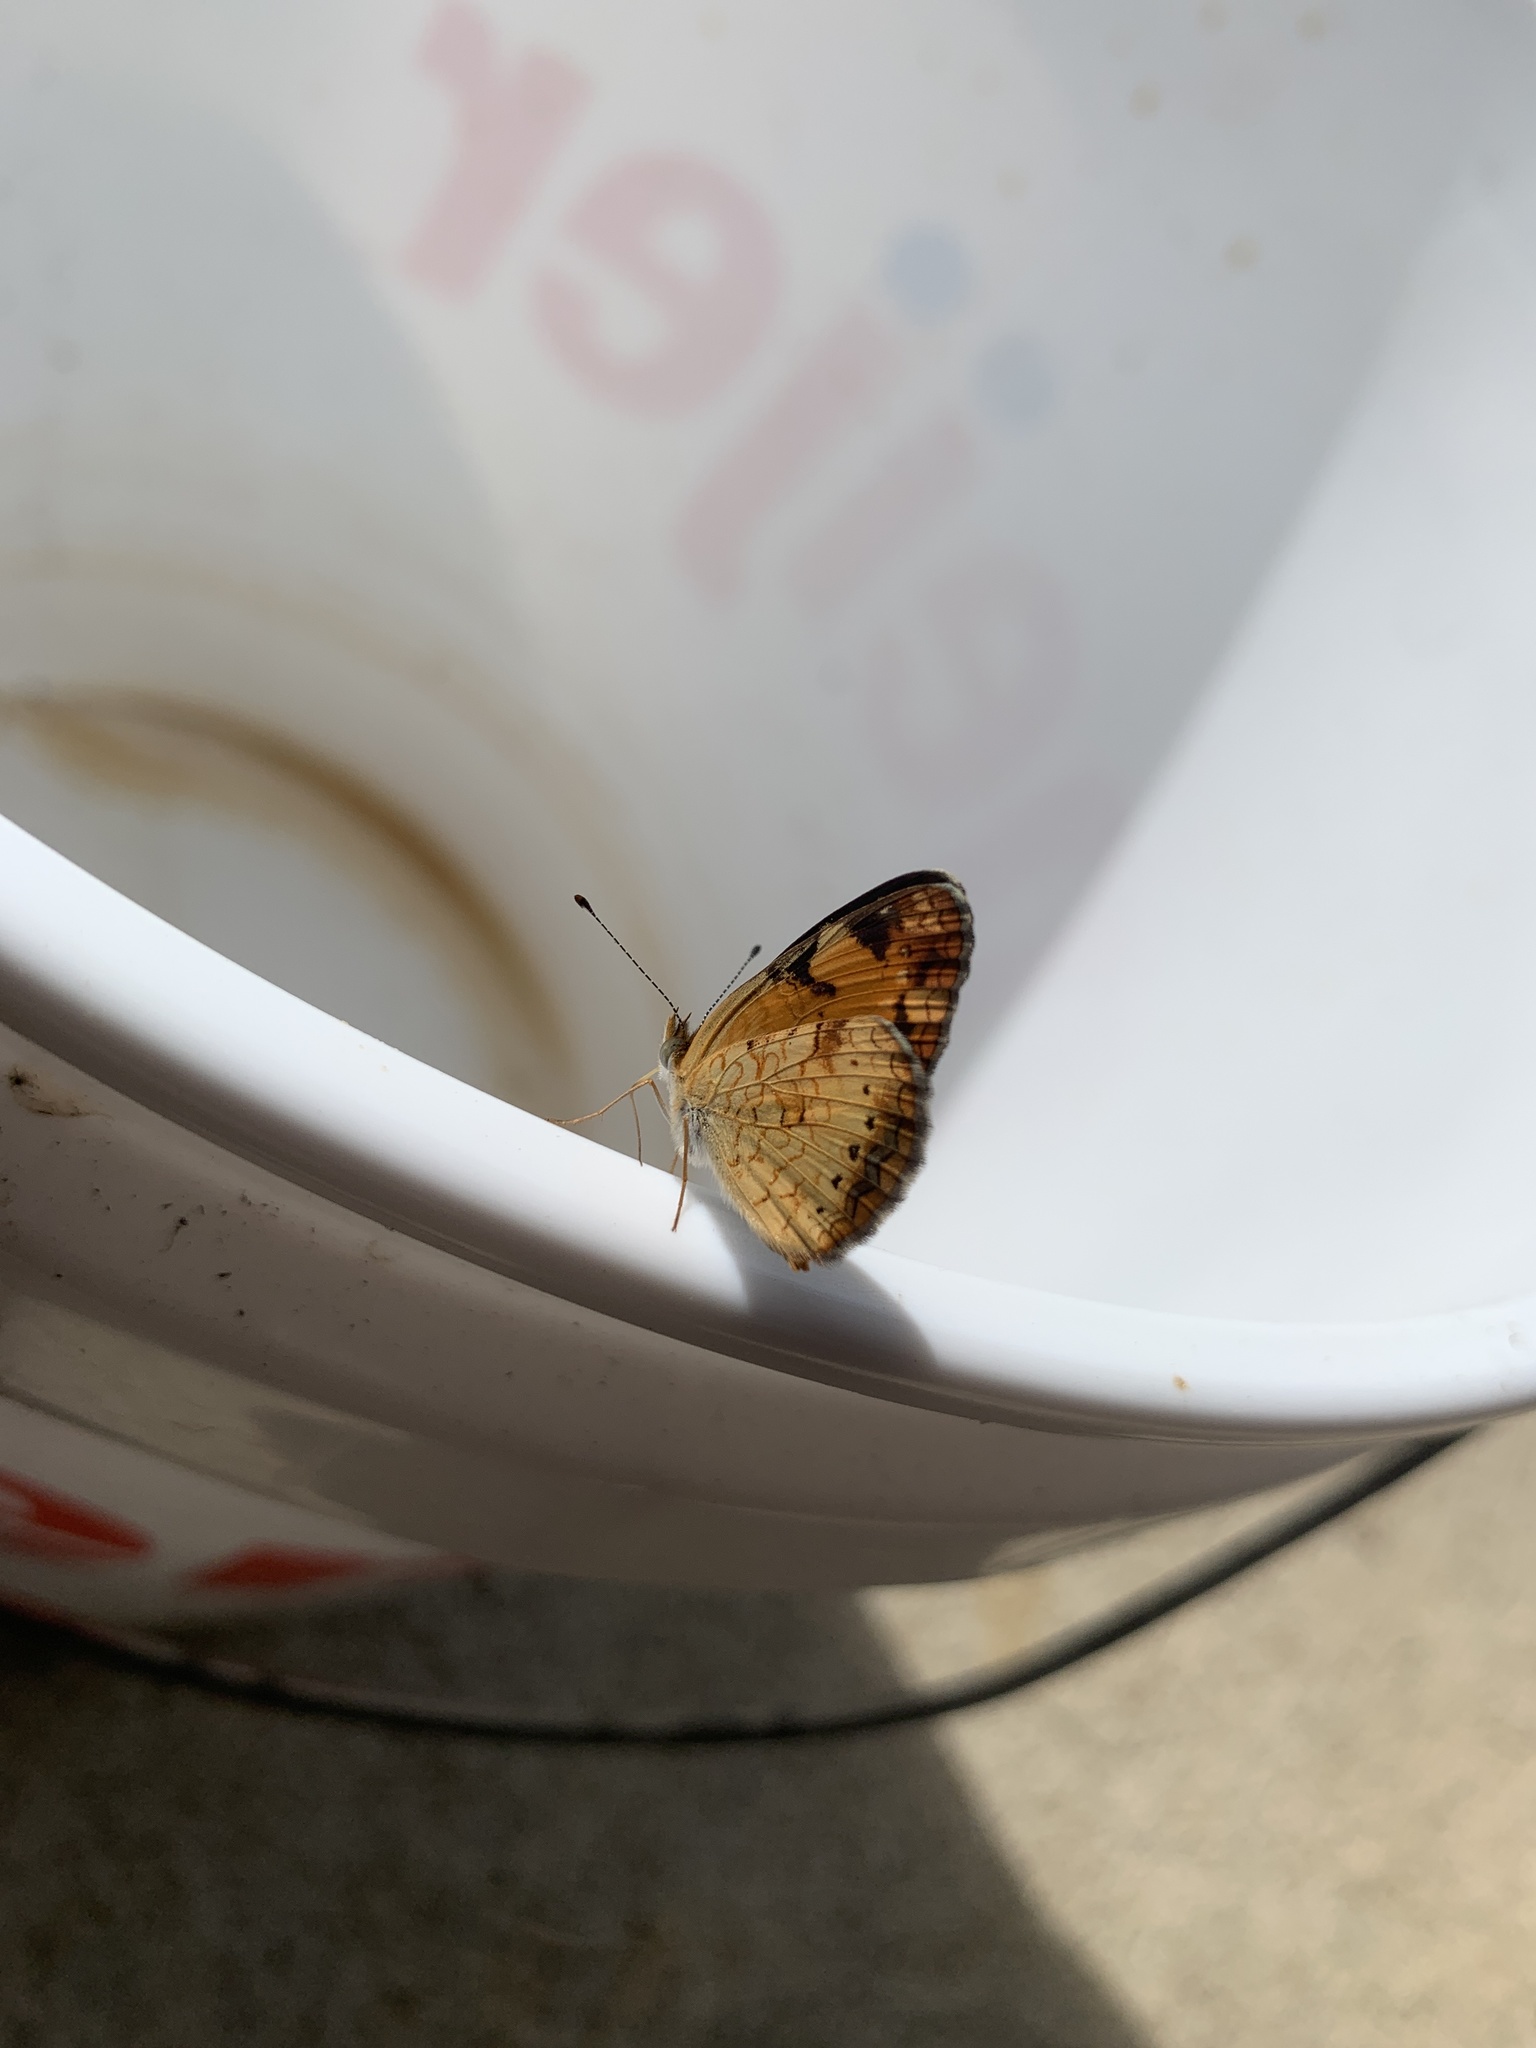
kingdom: Animalia
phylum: Arthropoda
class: Insecta
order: Lepidoptera
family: Nymphalidae
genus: Phyciodes
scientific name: Phyciodes tharos
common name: Pearl crescent
